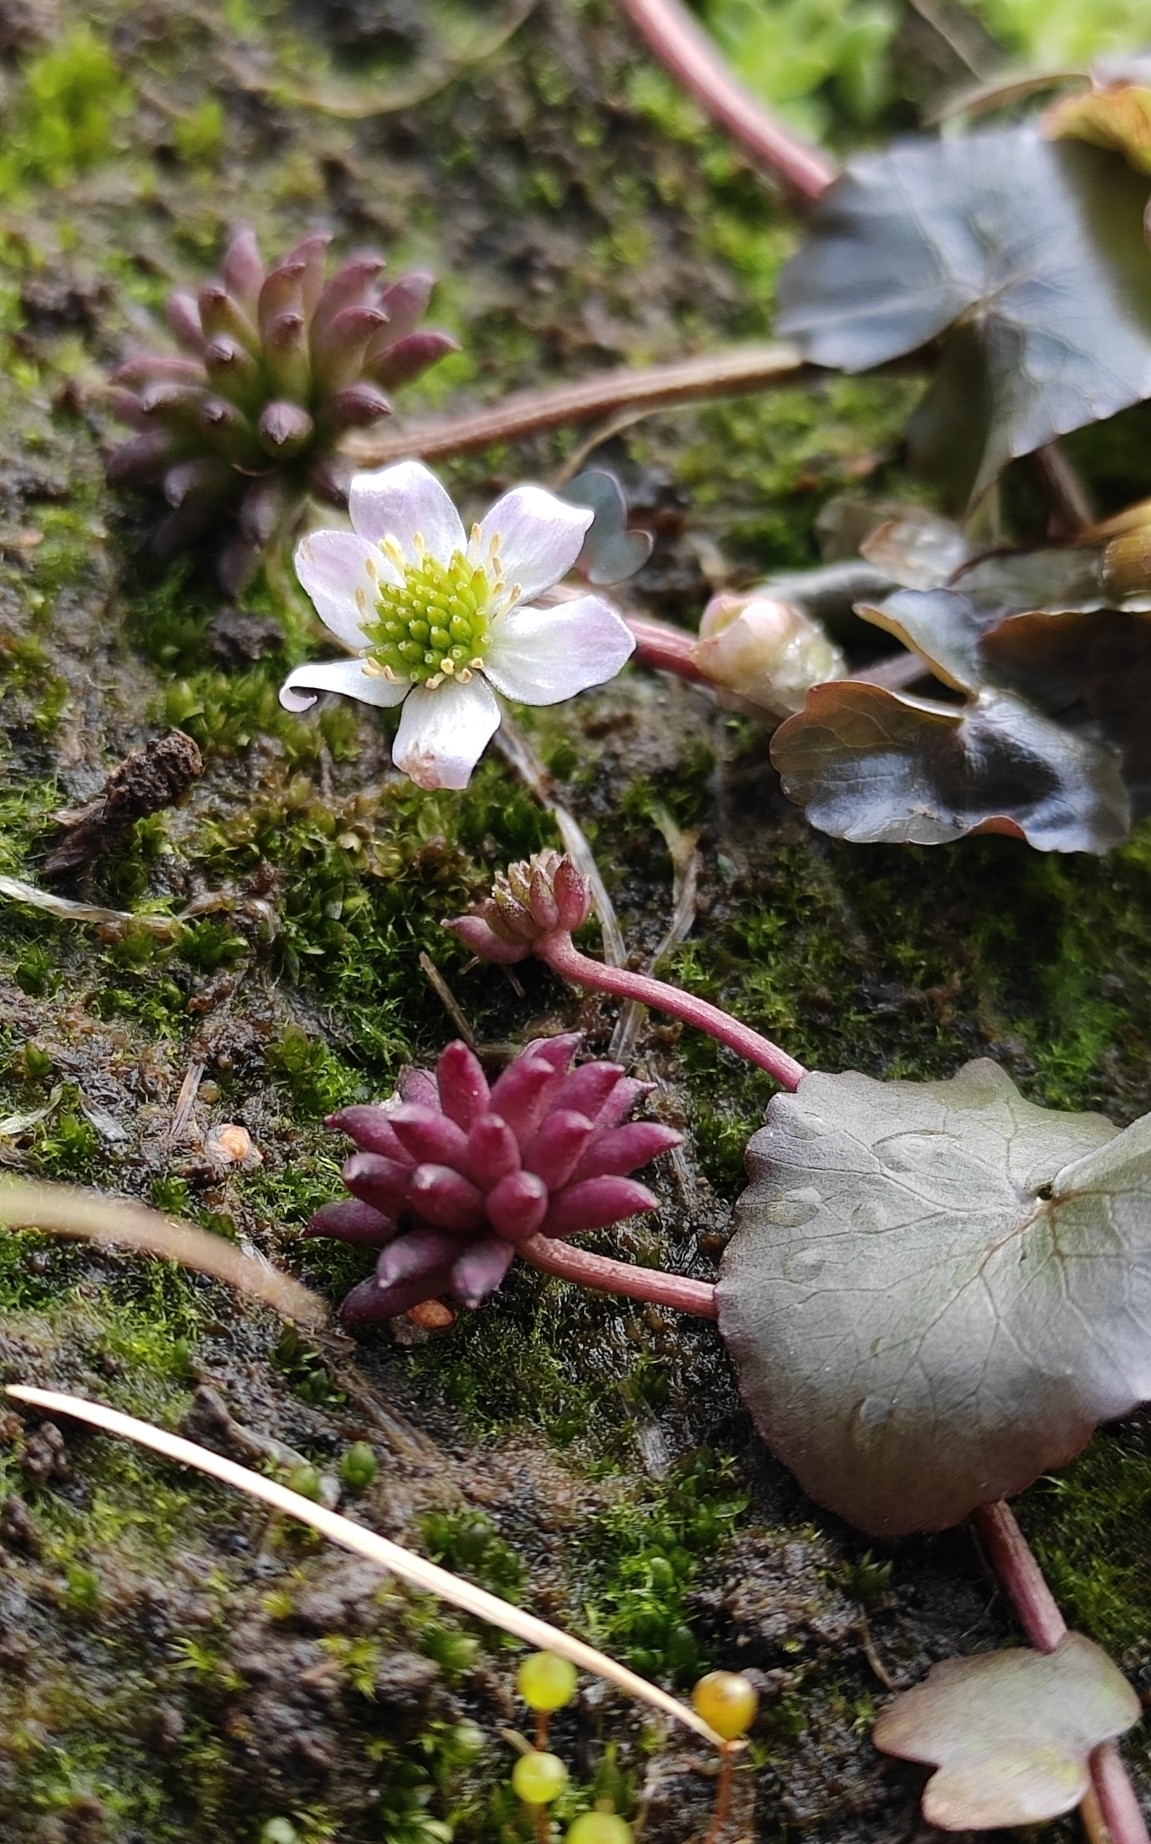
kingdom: Plantae
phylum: Tracheophyta
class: Magnoliopsida
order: Ranunculales
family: Ranunculaceae
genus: Caltha
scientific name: Caltha natans
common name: Floating marsh marigold
